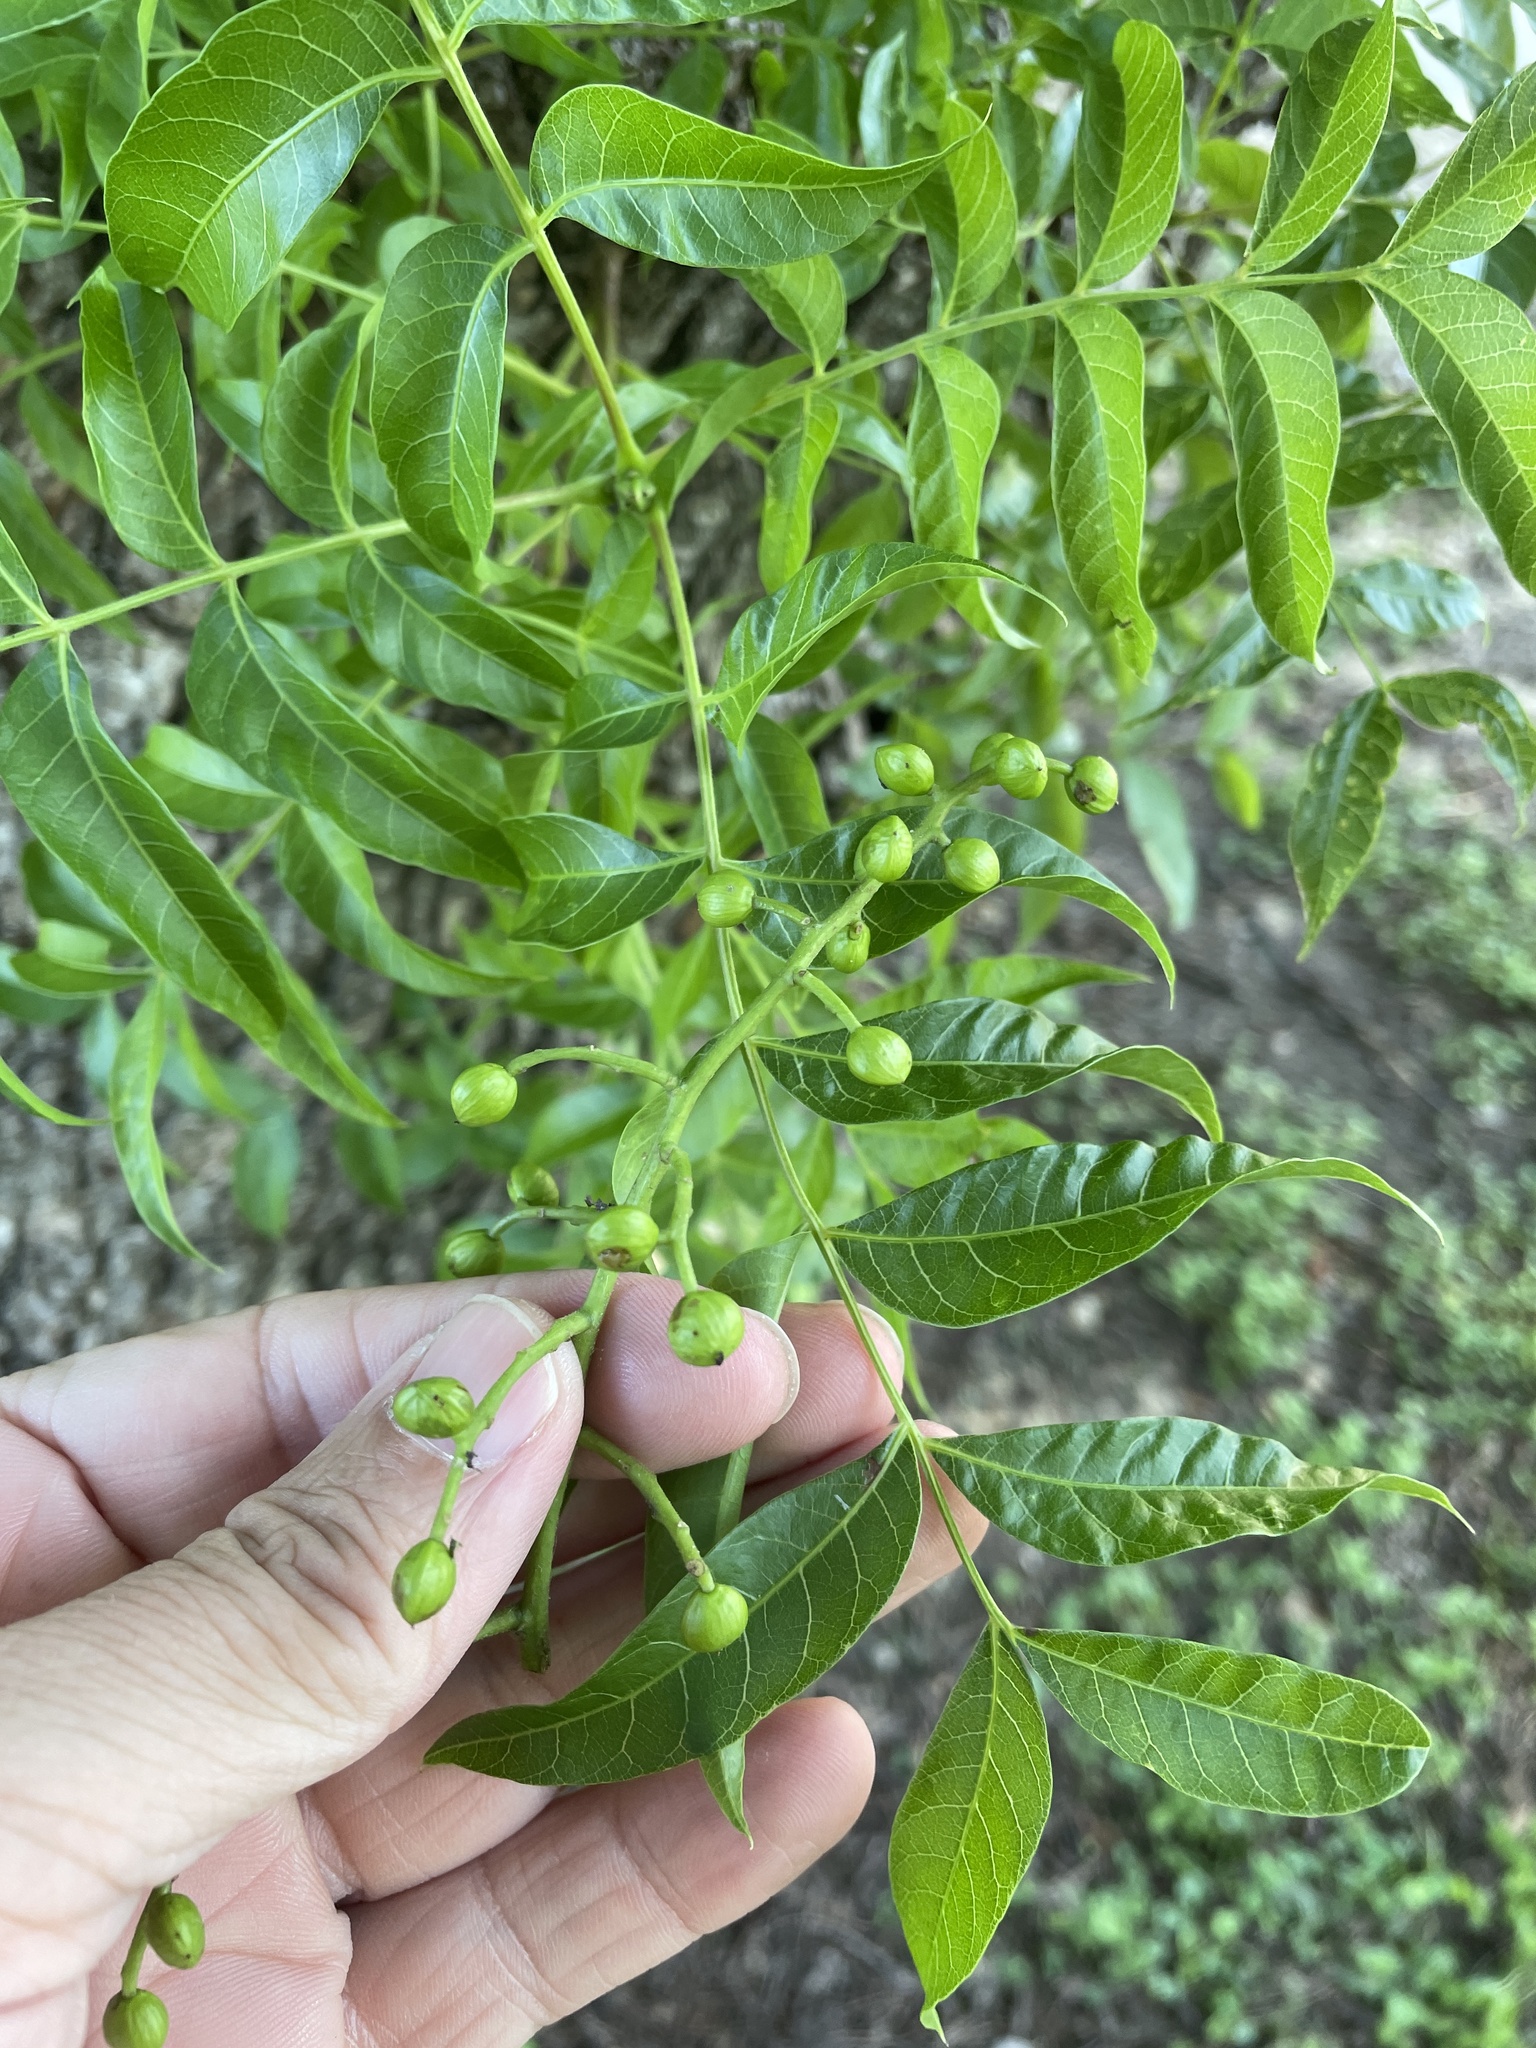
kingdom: Plantae
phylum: Tracheophyta
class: Magnoliopsida
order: Sapindales
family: Anacardiaceae
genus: Pistacia
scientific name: Pistacia chinensis
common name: Chinese pistache
